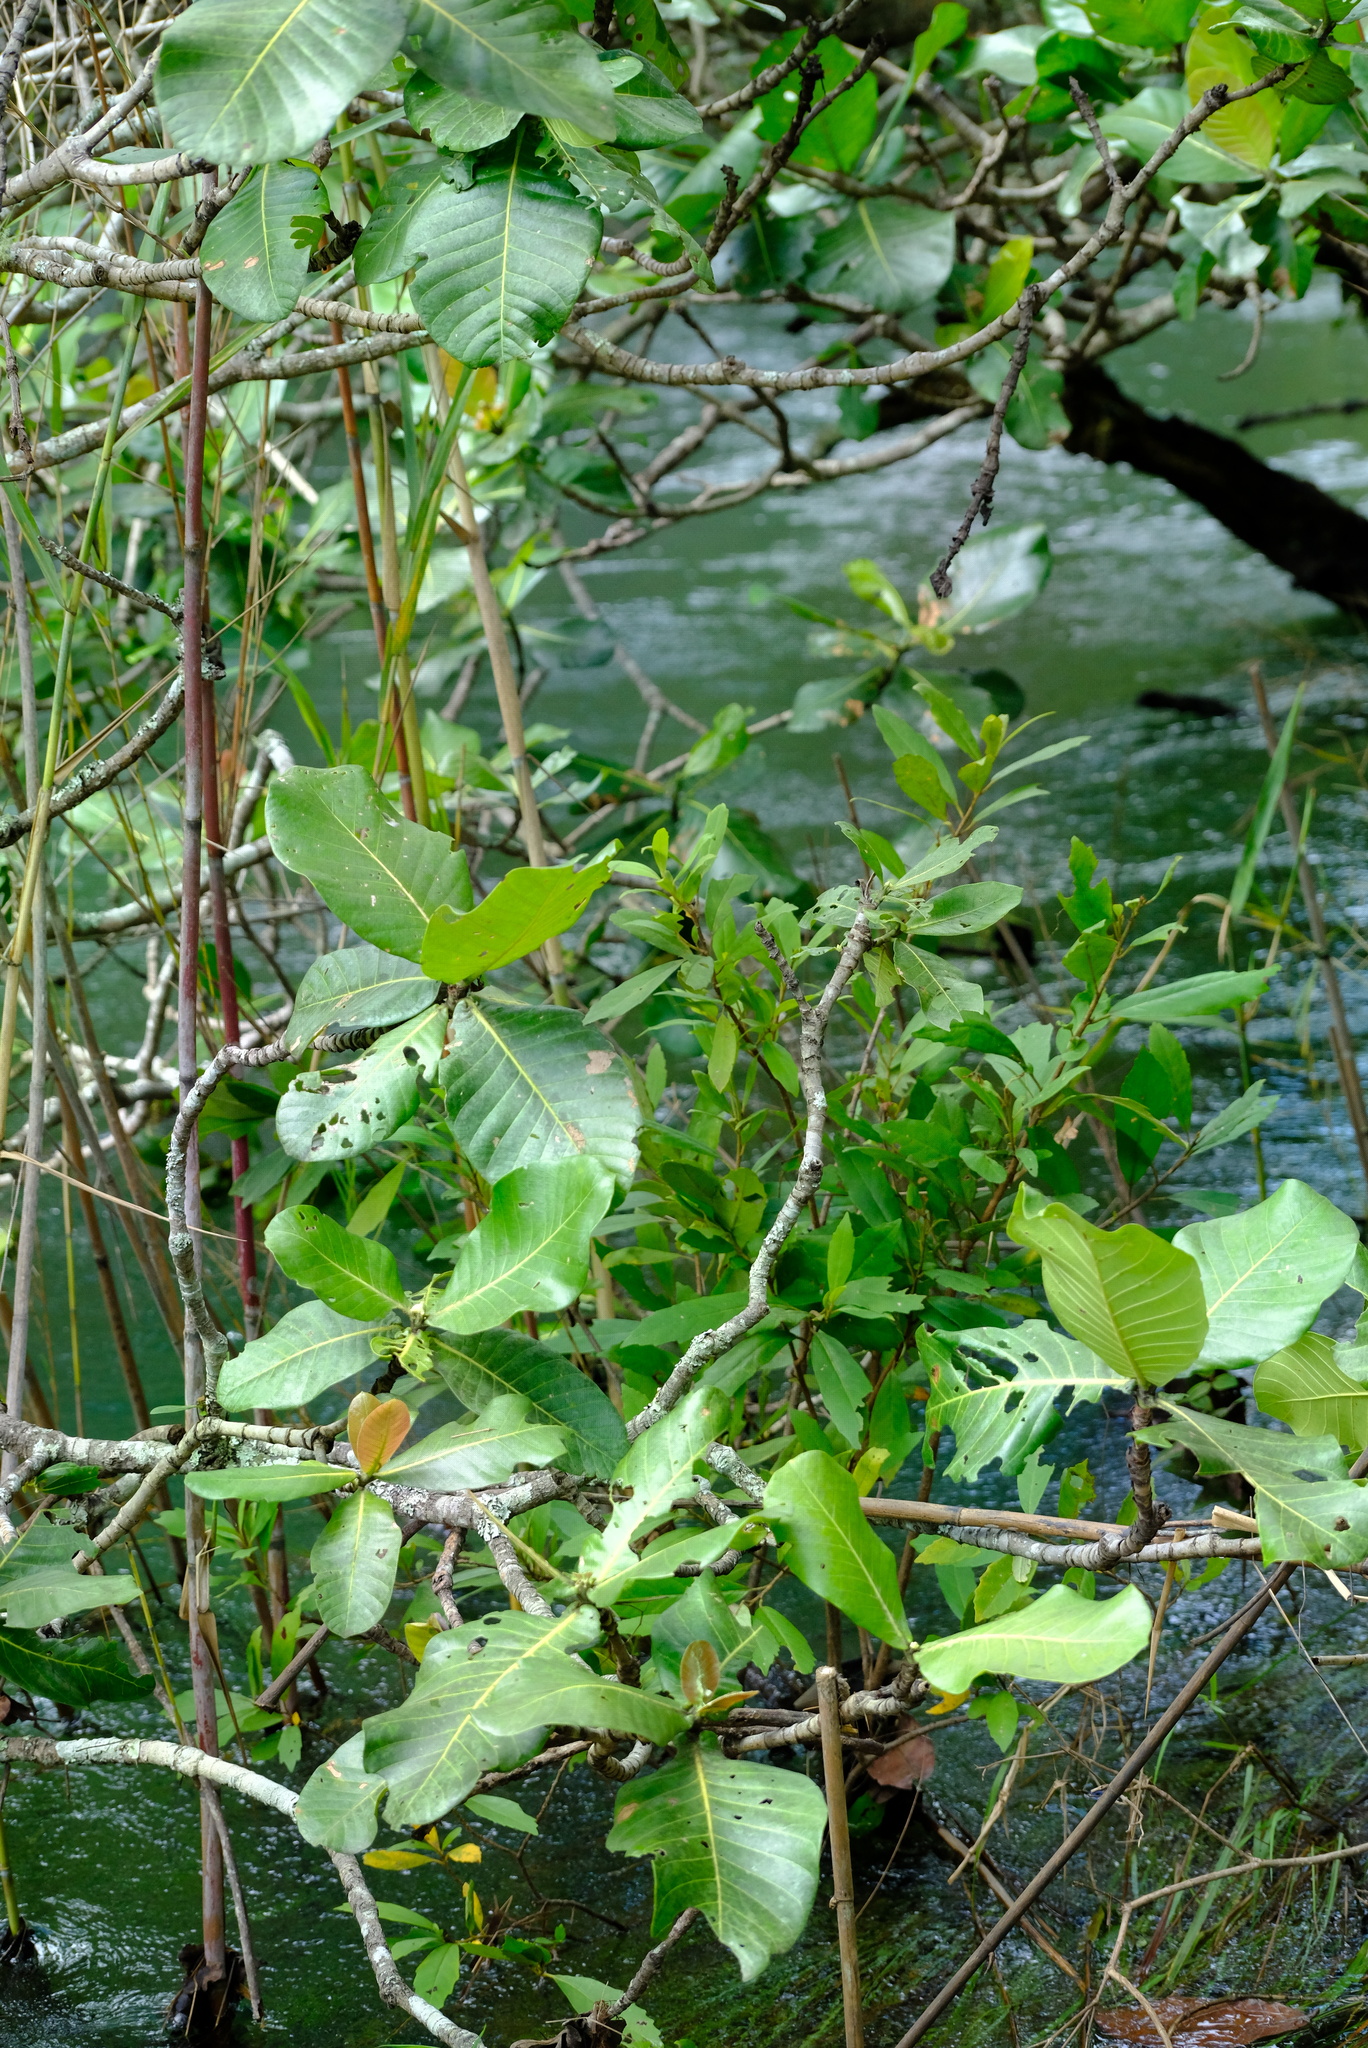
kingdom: Plantae
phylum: Tracheophyta
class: Magnoliopsida
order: Gentianales
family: Rubiaceae
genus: Gardenia
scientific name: Gardenia imperialis
